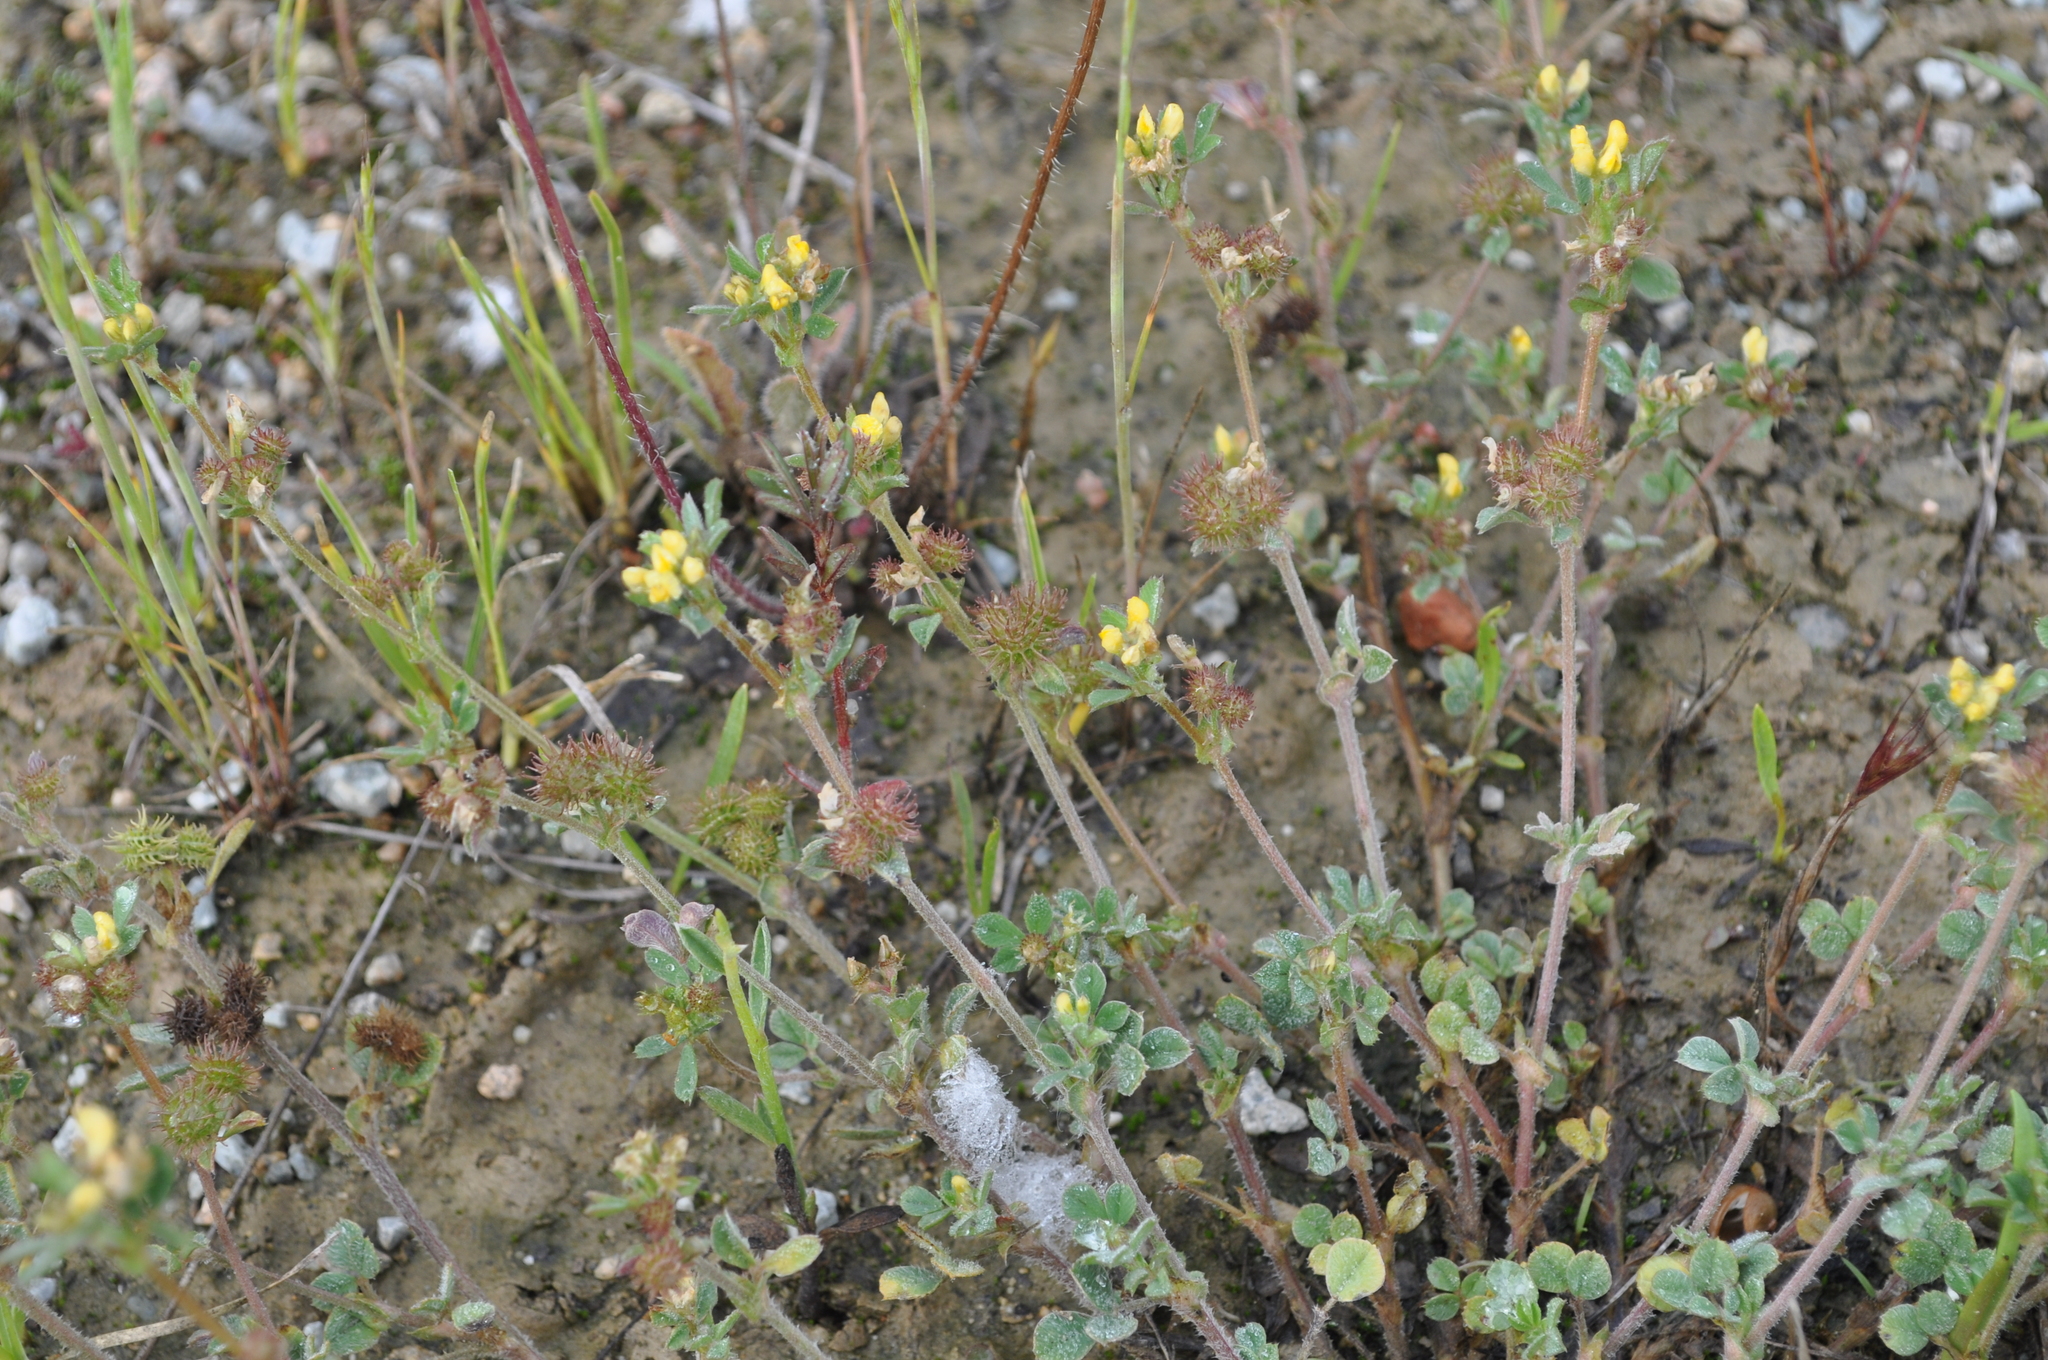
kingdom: Plantae
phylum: Tracheophyta
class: Magnoliopsida
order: Fabales
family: Fabaceae
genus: Medicago
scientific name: Medicago minima
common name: Little bur-clover
